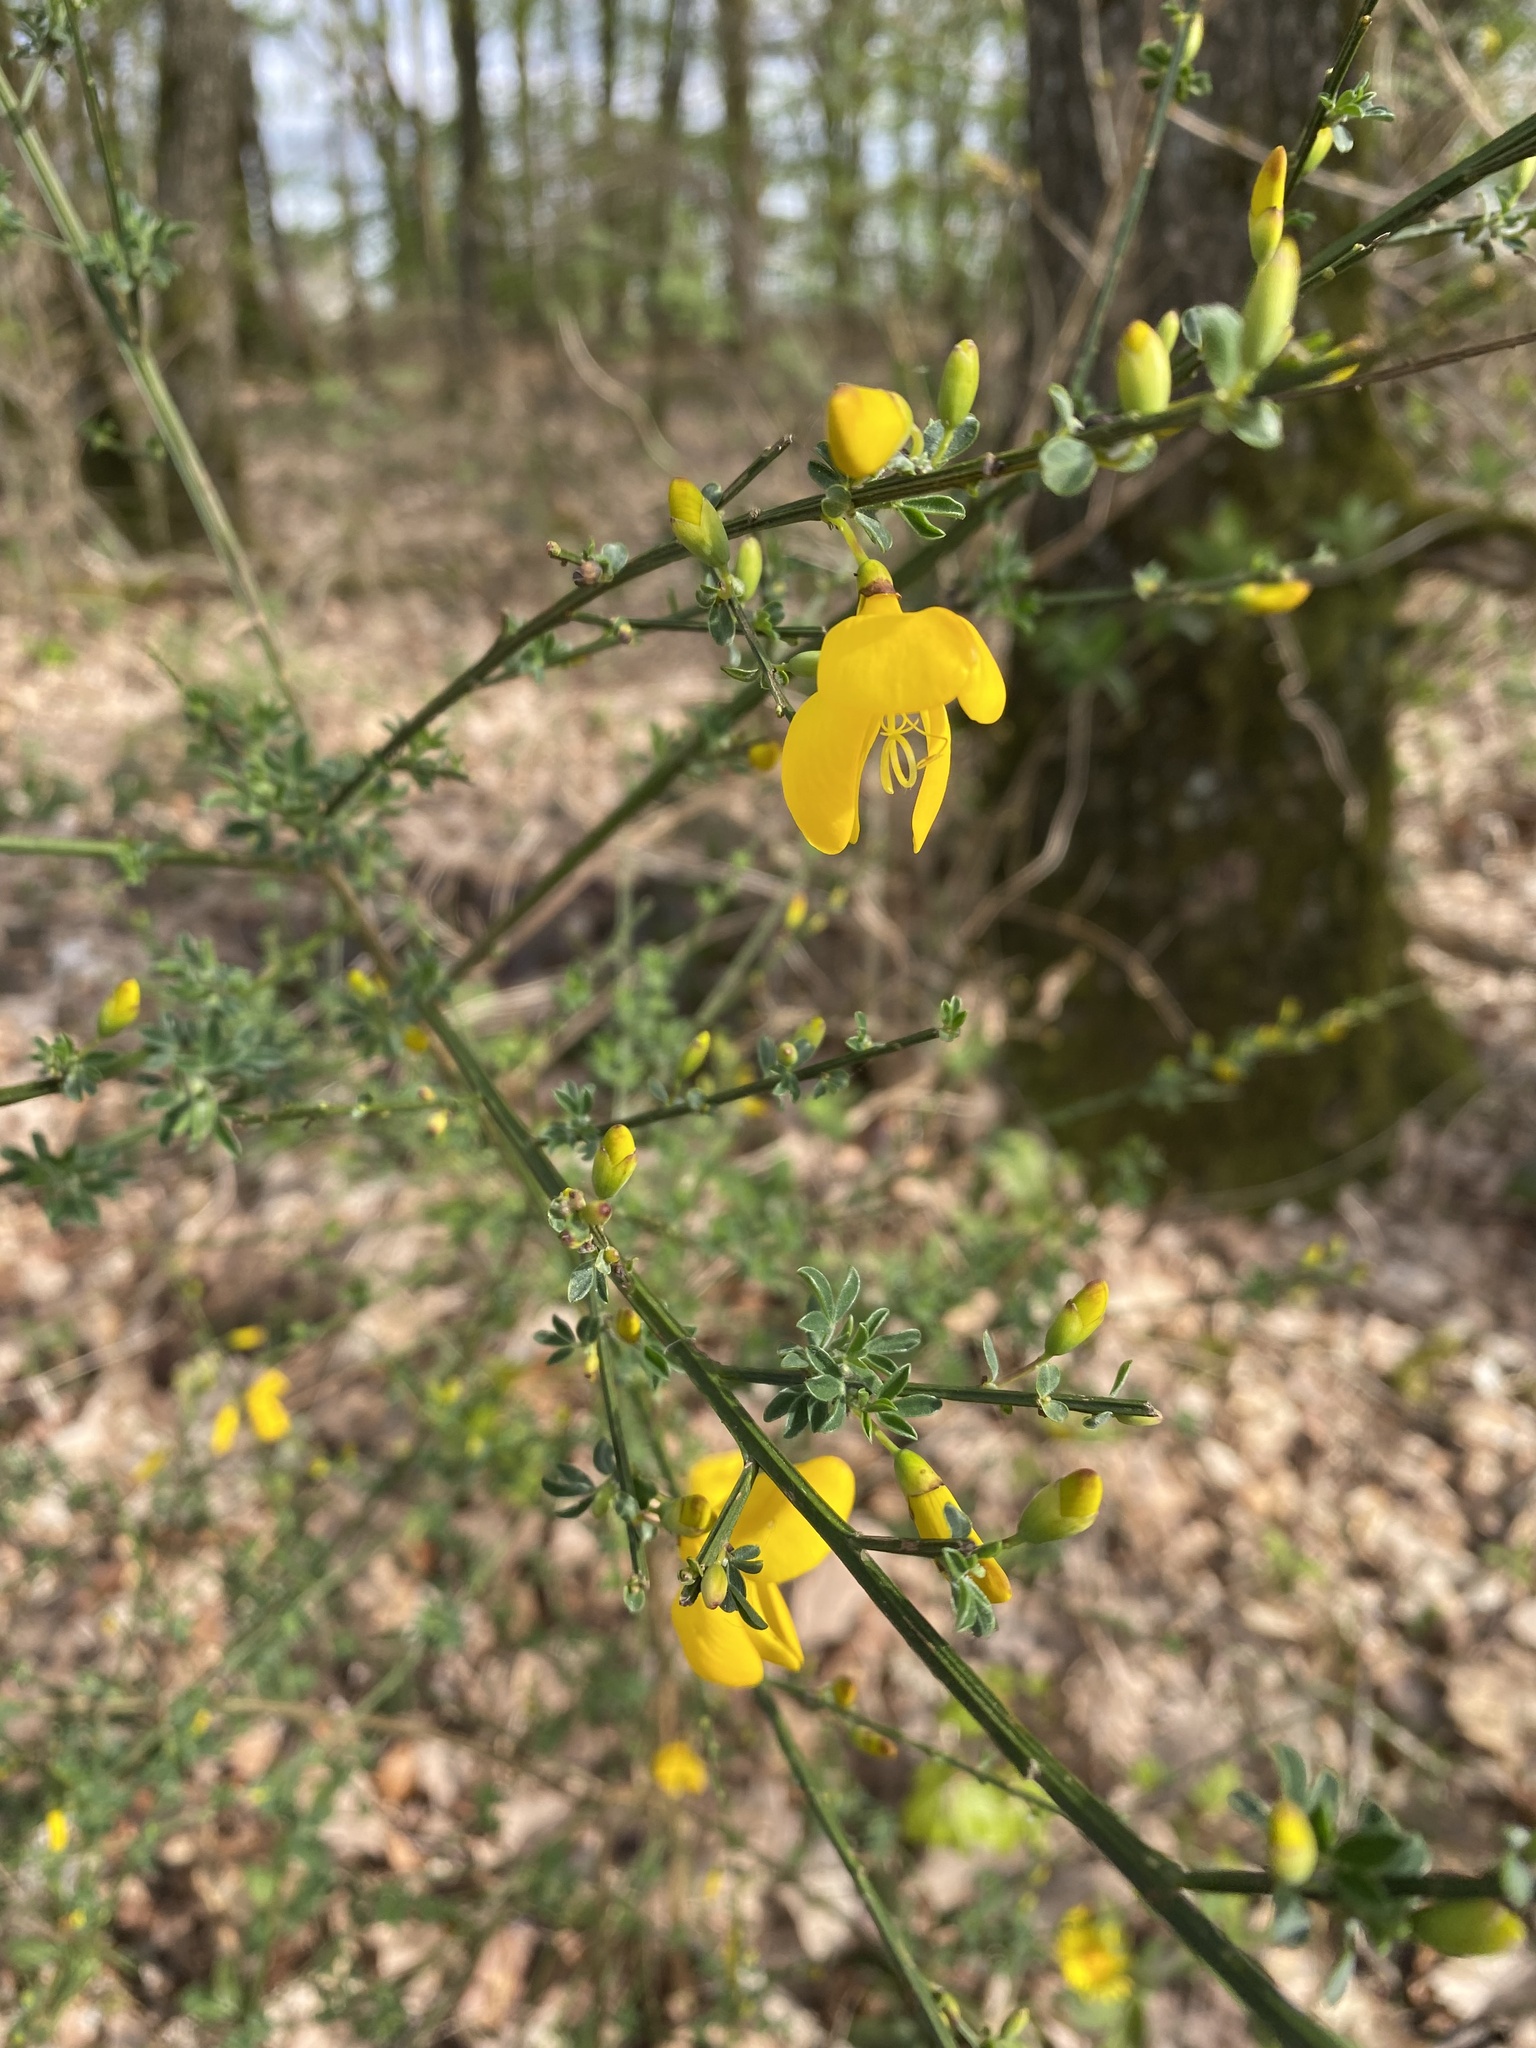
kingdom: Plantae
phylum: Tracheophyta
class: Magnoliopsida
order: Fabales
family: Fabaceae
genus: Cytisus
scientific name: Cytisus scoparius
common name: Scotch broom
